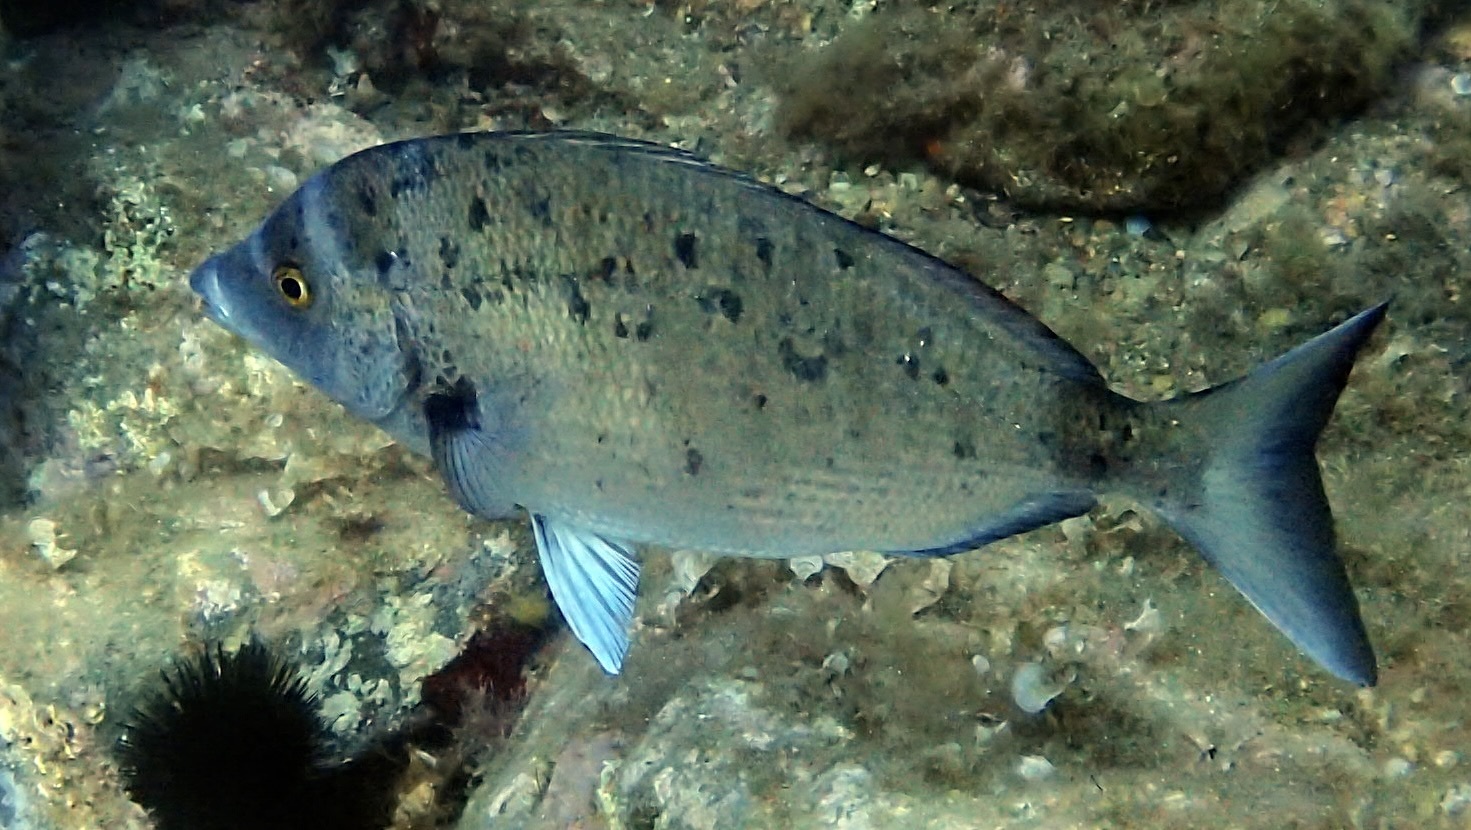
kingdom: Animalia
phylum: Chordata
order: Perciformes
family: Sparidae
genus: Diplodus
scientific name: Diplodus puntazzo
